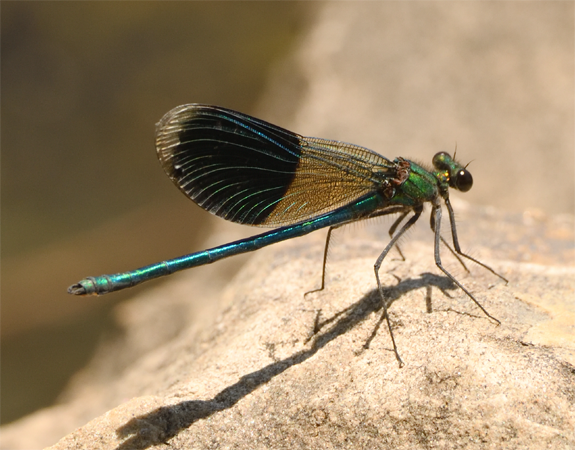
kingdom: Animalia
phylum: Arthropoda
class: Insecta
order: Odonata
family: Calopterygidae
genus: Calopteryx
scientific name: Calopteryx splendens
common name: Banded demoiselle
